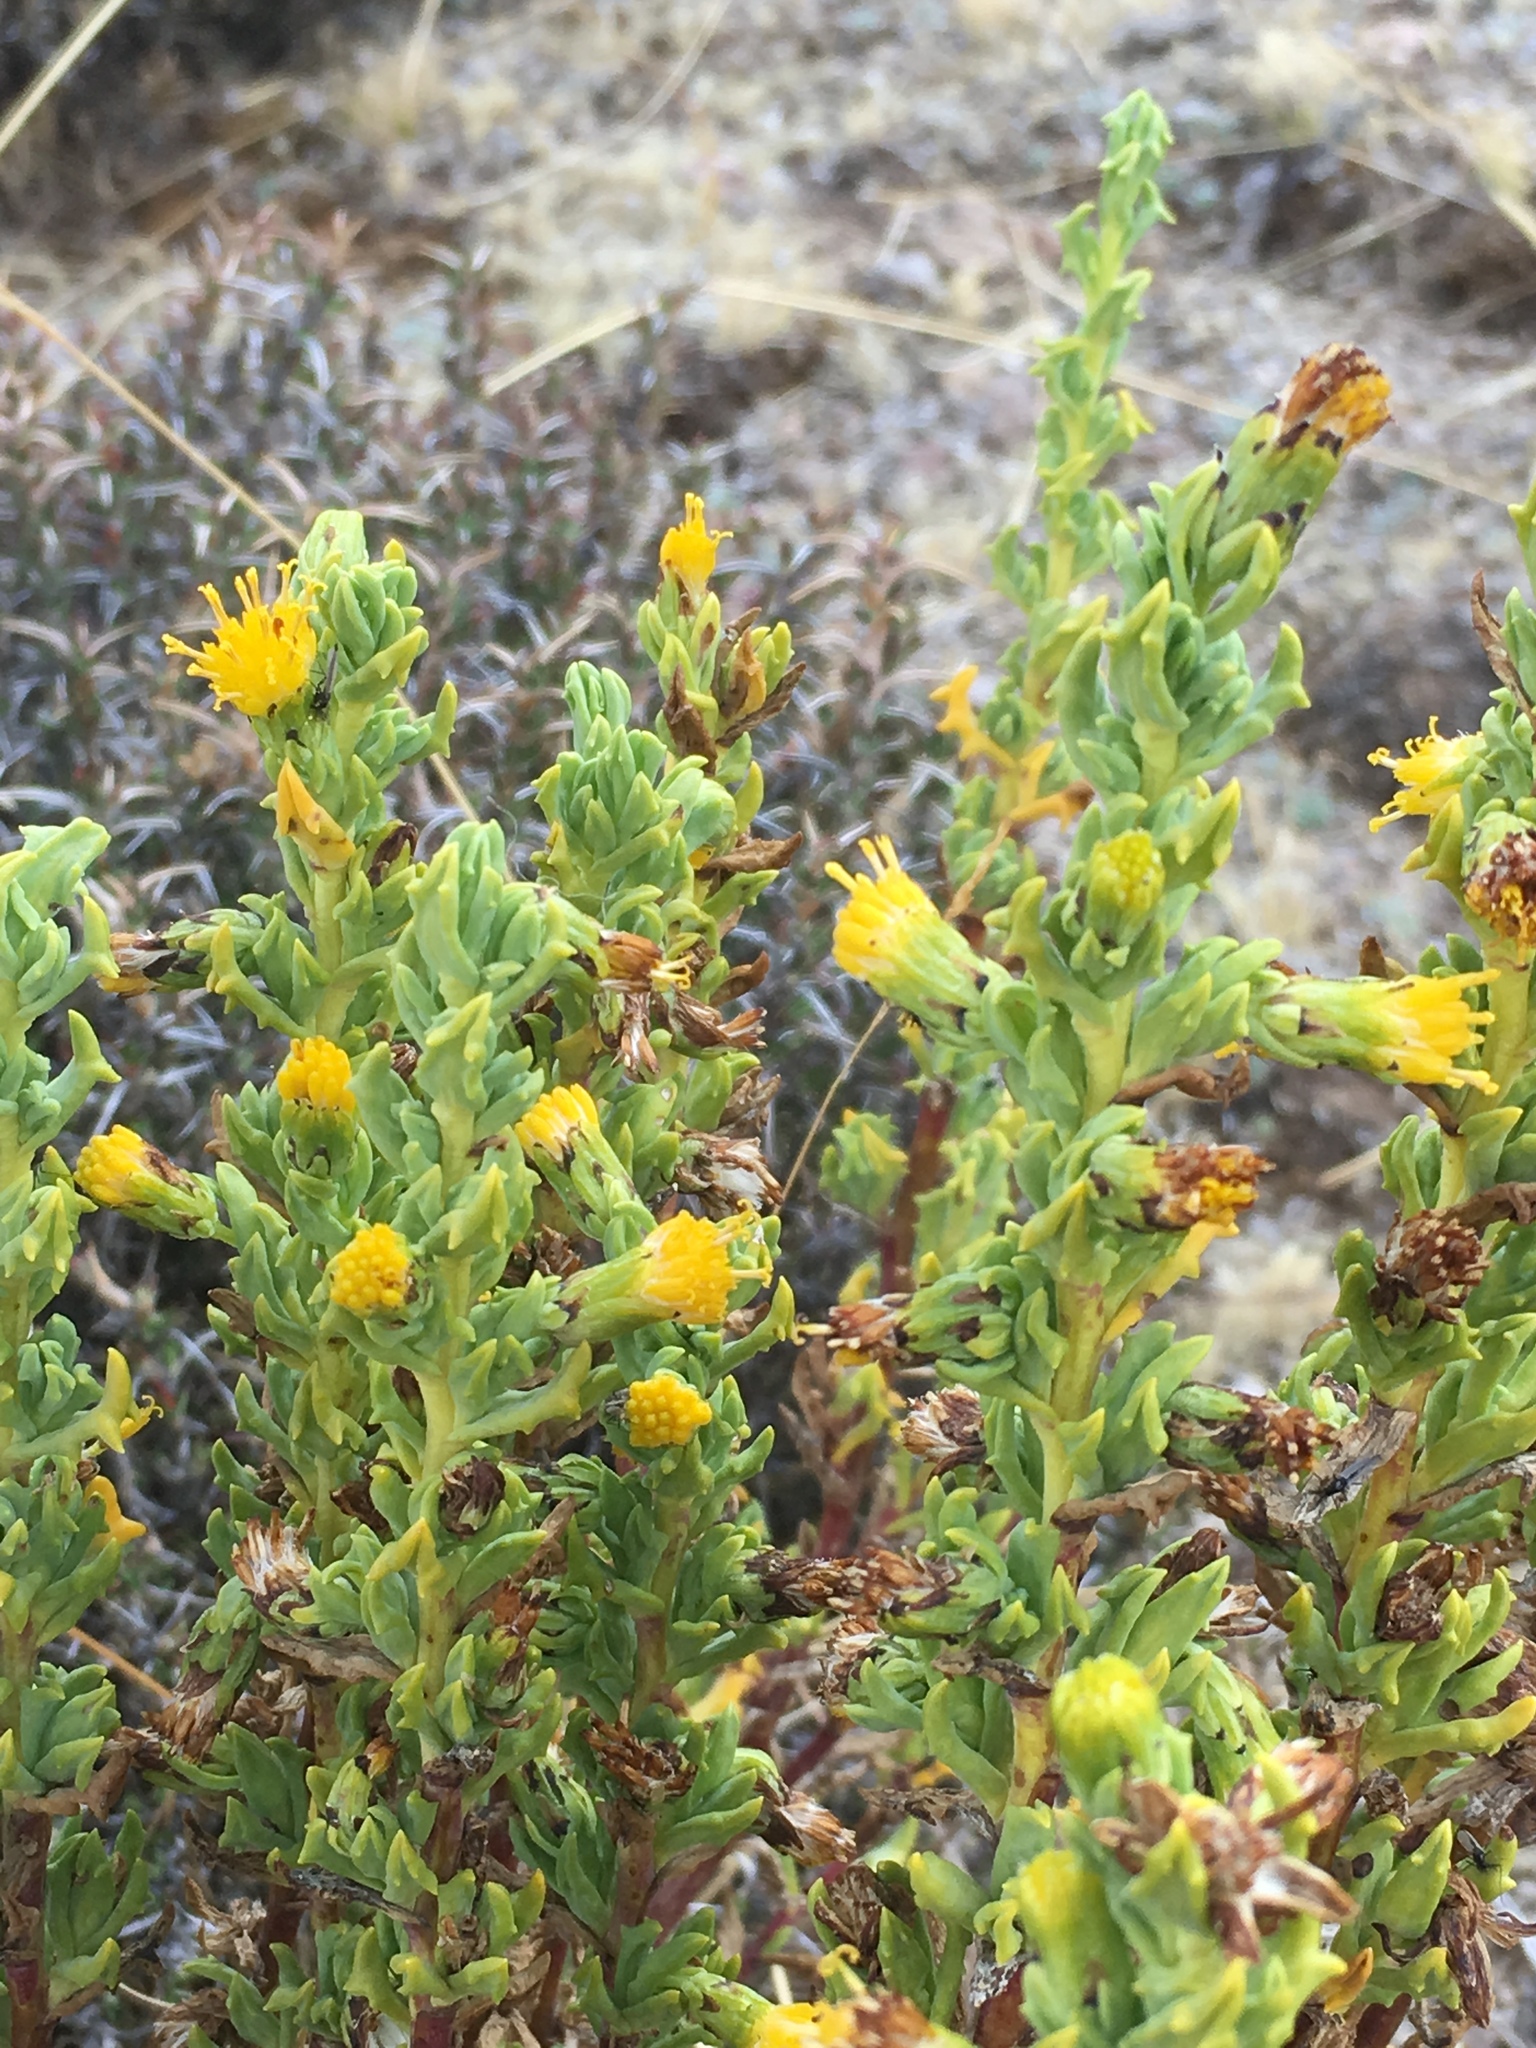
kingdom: Plantae
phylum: Tracheophyta
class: Magnoliopsida
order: Asterales
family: Asteraceae
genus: Senecio
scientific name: Senecio nutans
